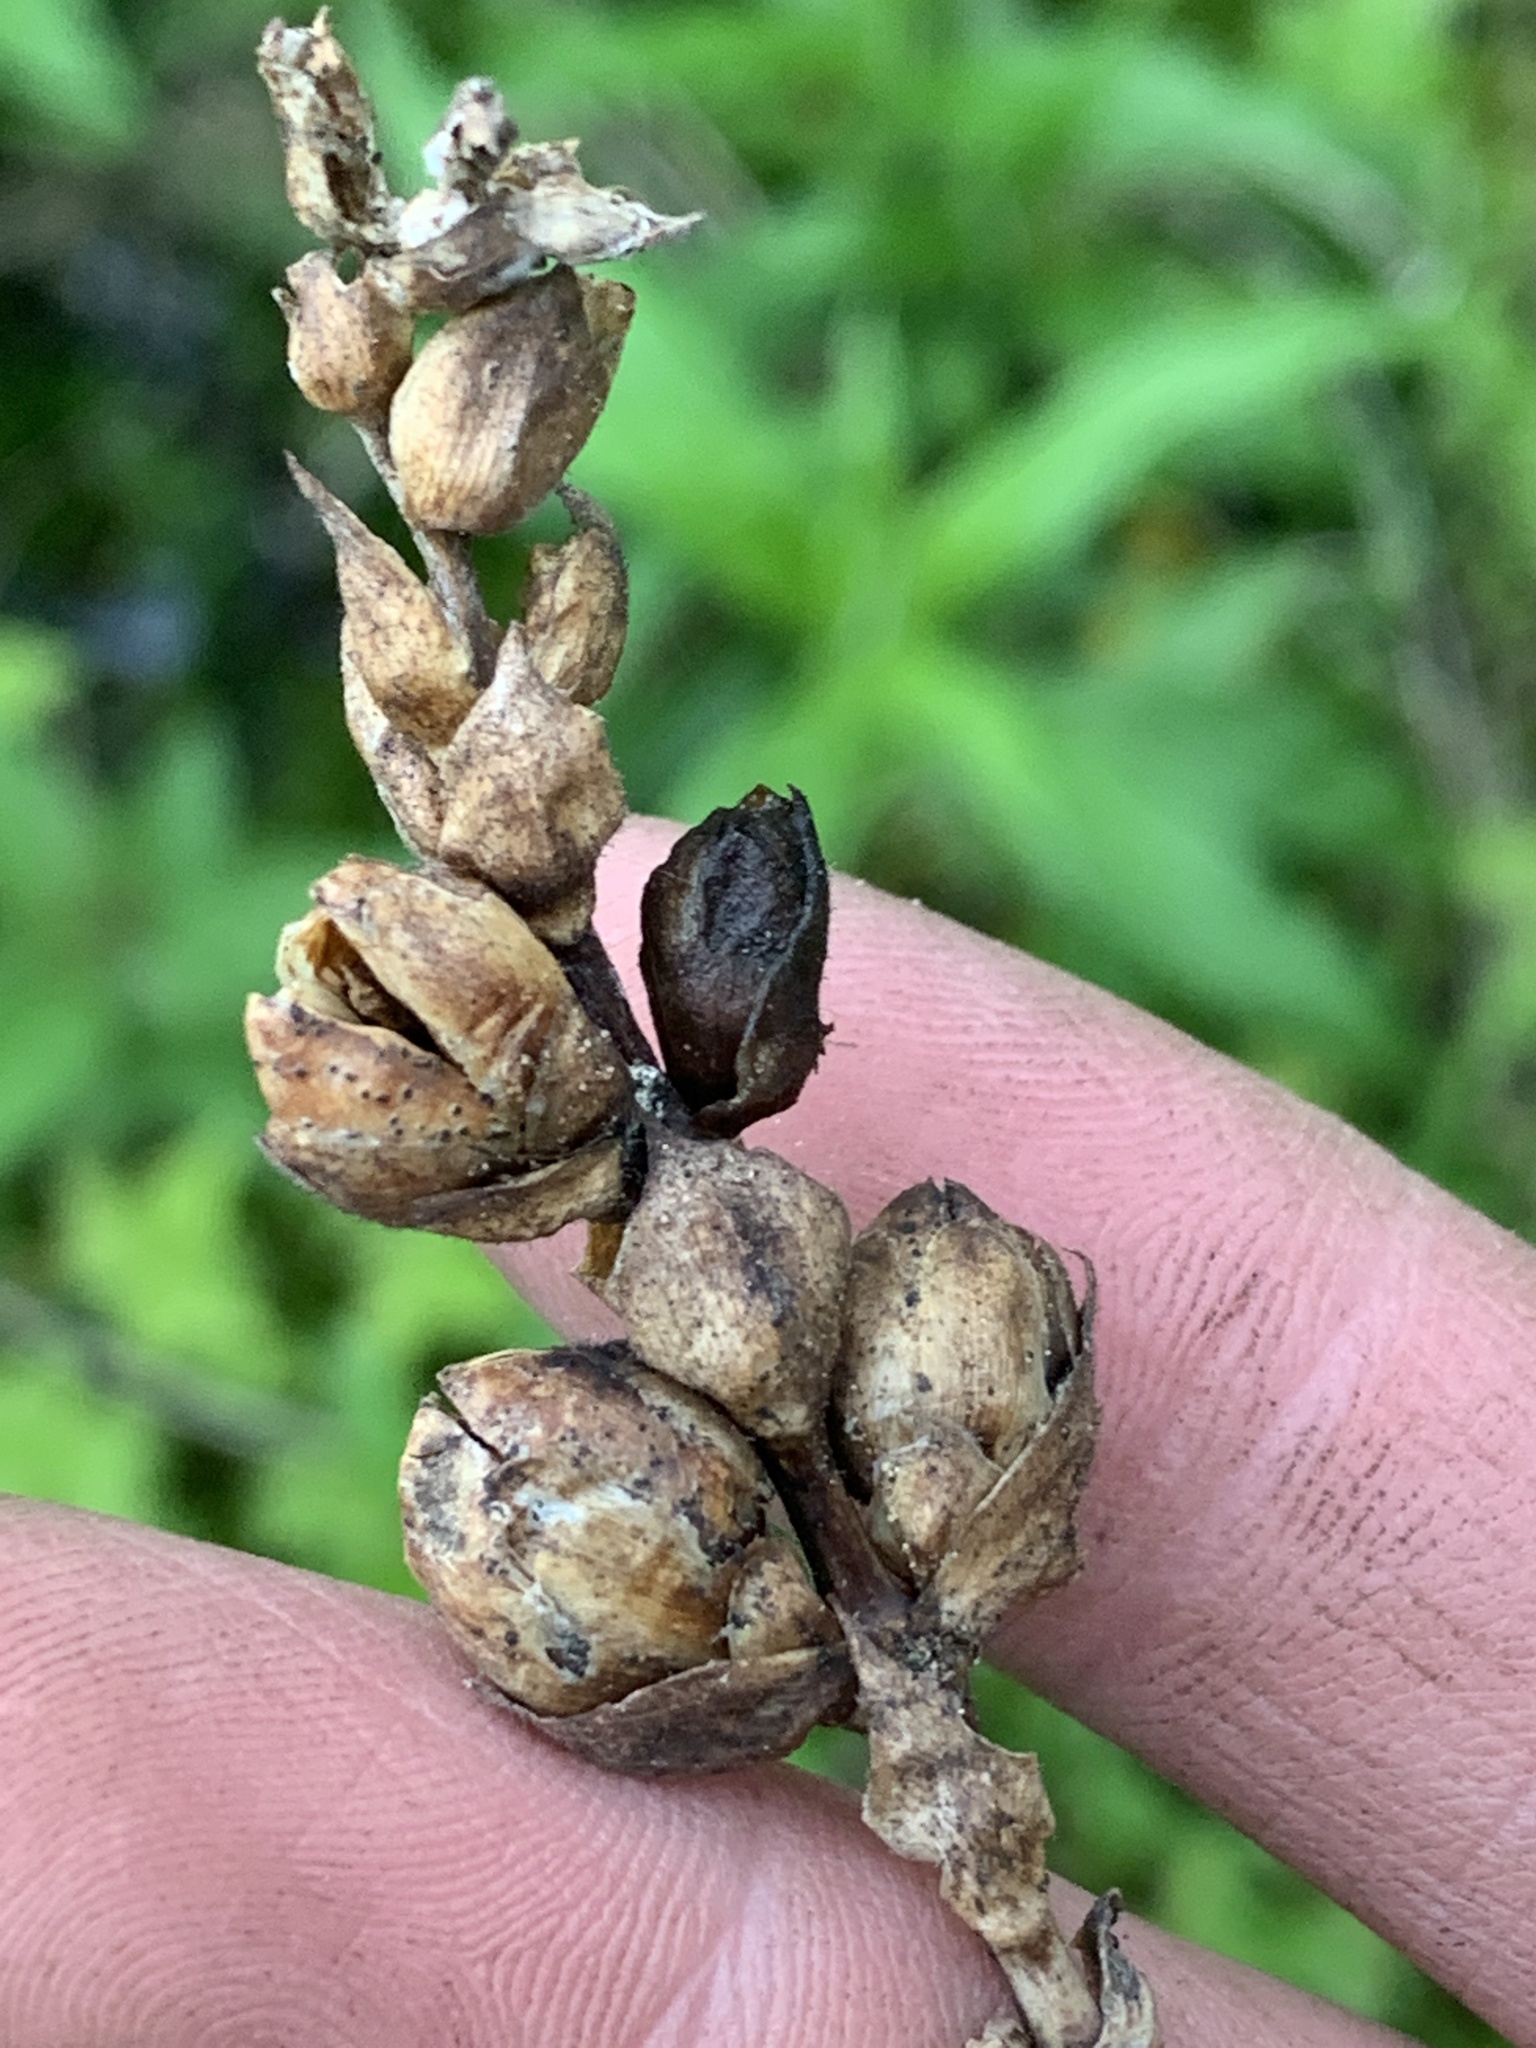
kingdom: Plantae
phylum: Tracheophyta
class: Magnoliopsida
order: Lamiales
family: Plantaginaceae
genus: Chelone
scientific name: Chelone glabra
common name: Snakehead
